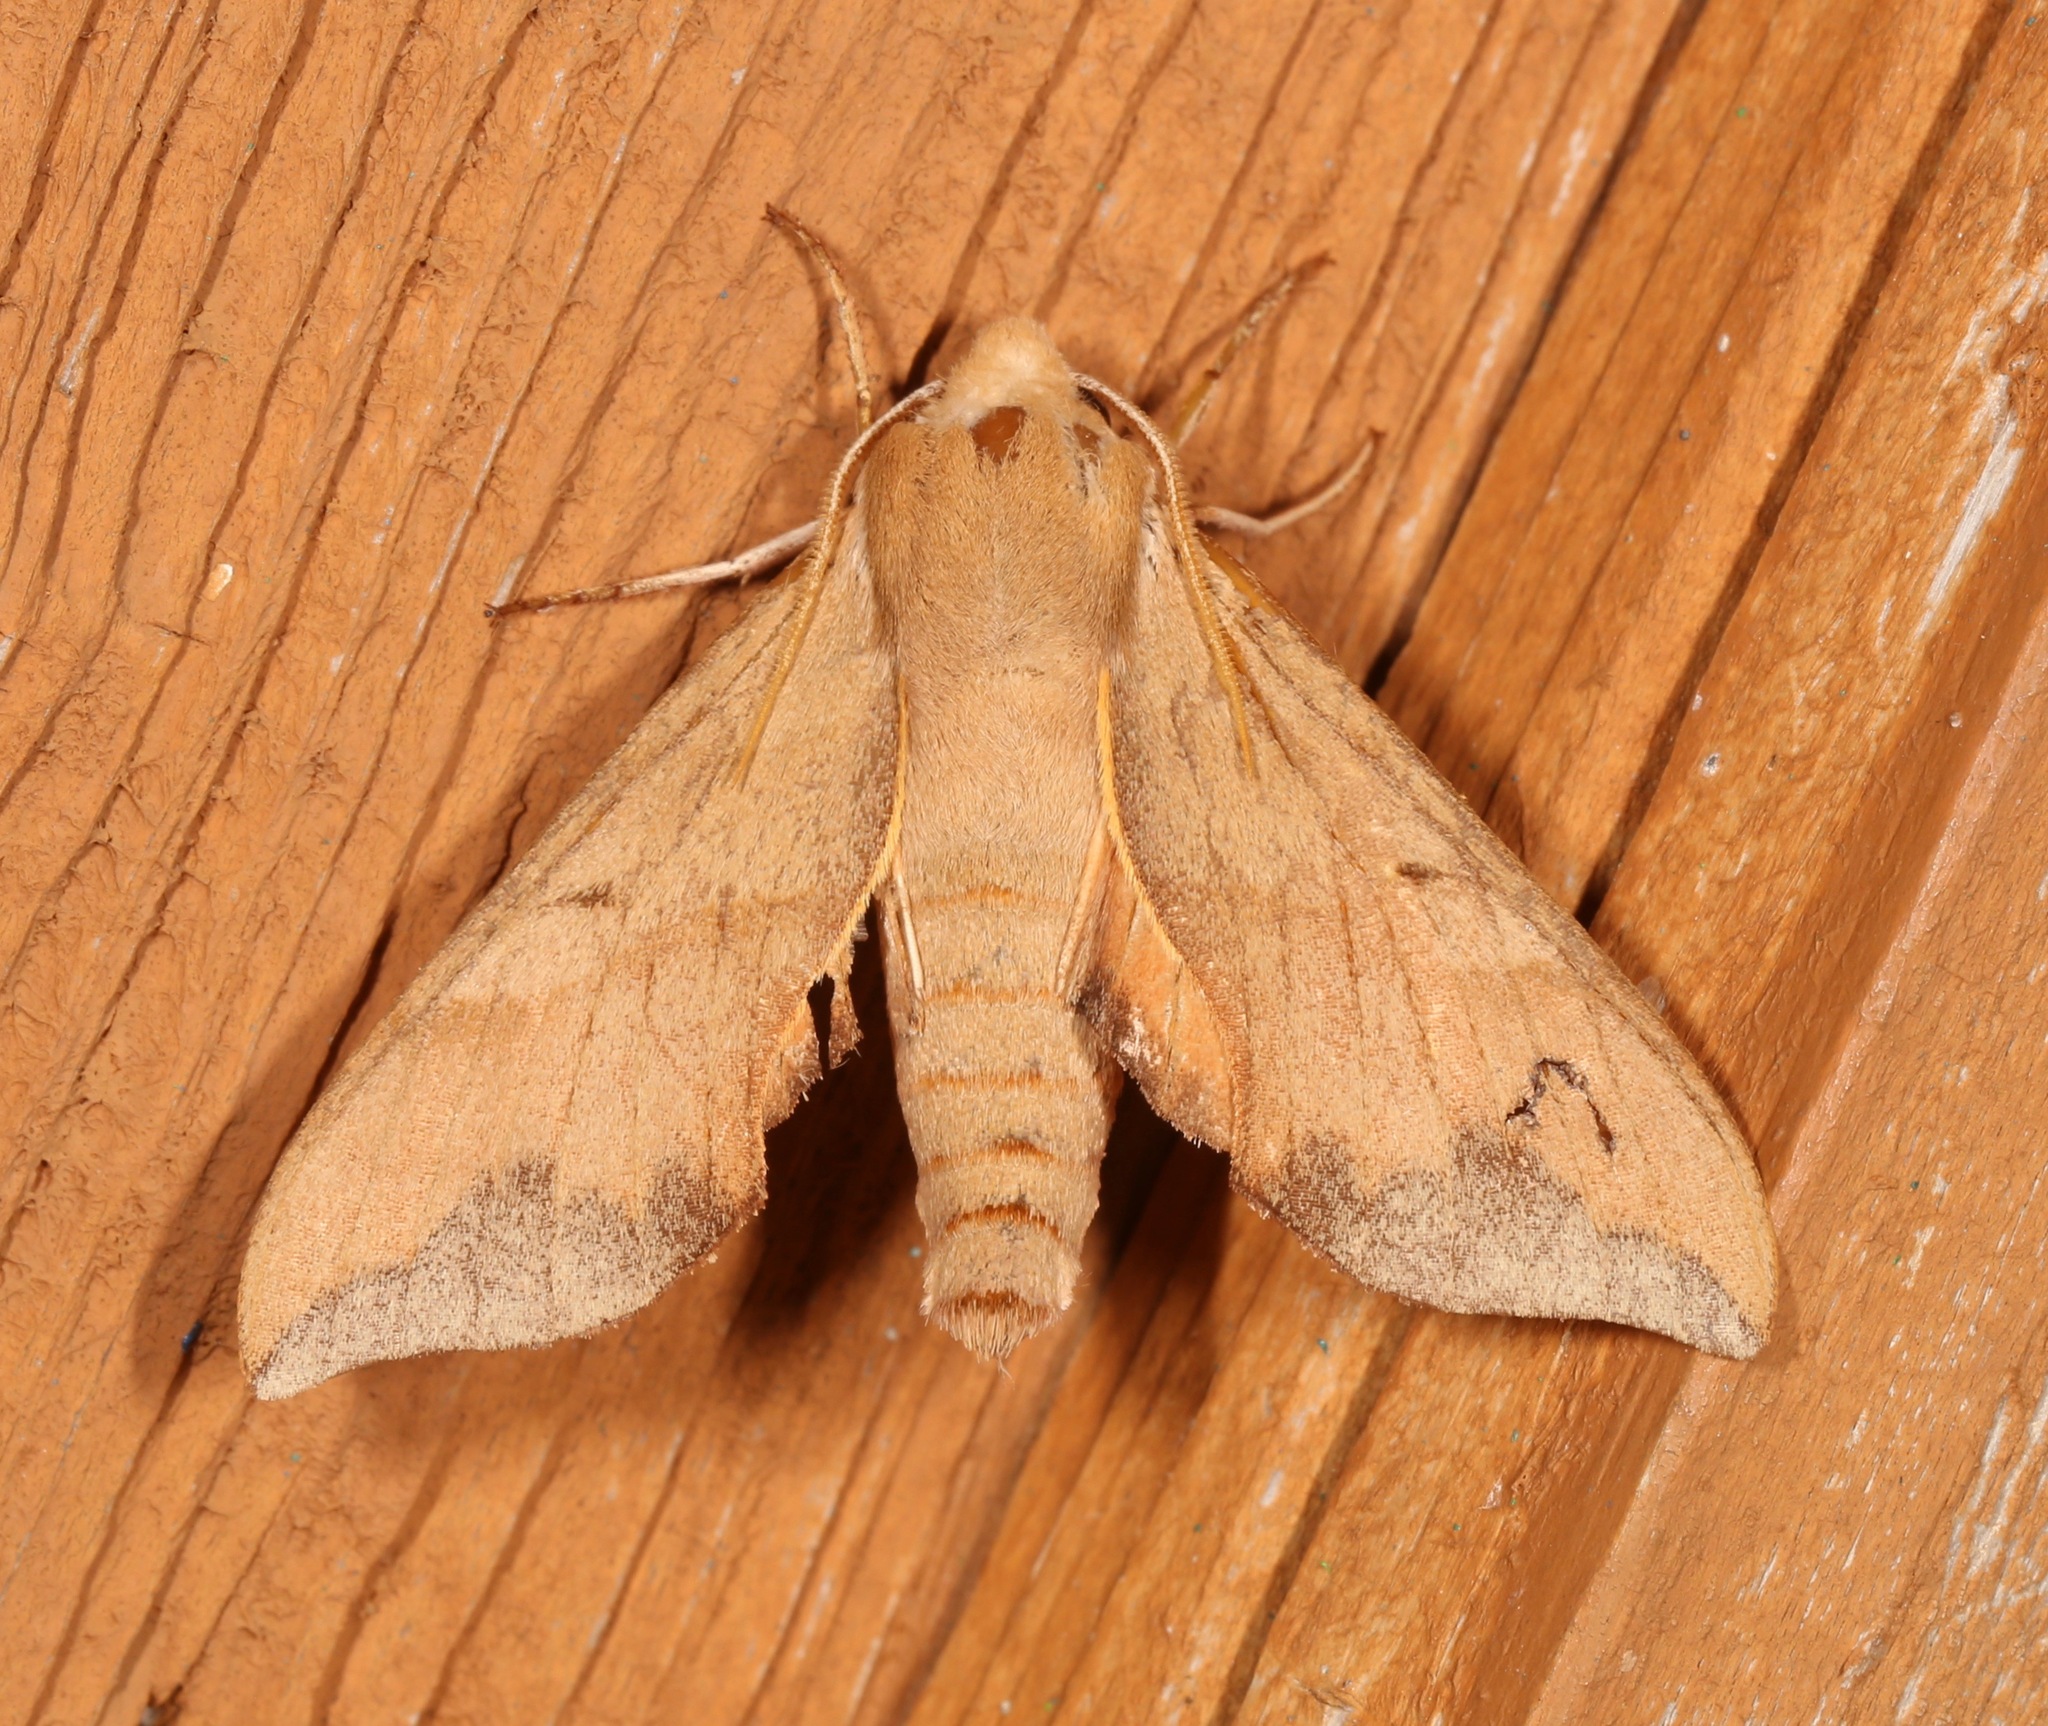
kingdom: Animalia
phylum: Arthropoda
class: Insecta
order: Lepidoptera
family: Sphingidae
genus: Darapsa
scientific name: Darapsa myron
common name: Hog sphinx
